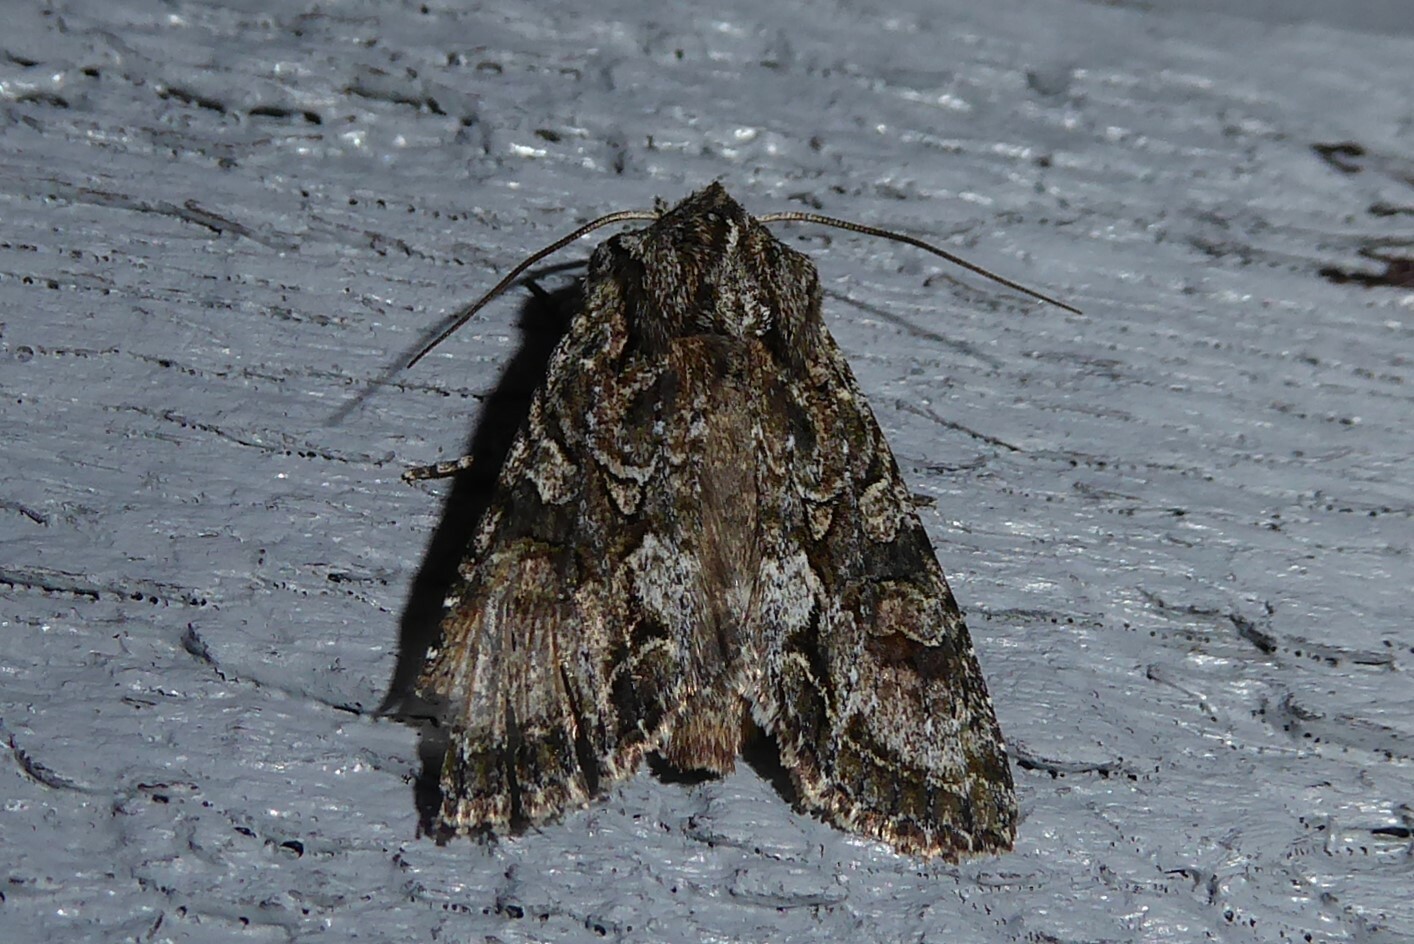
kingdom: Animalia
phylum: Arthropoda
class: Insecta
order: Lepidoptera
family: Noctuidae
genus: Ichneutica
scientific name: Ichneutica mutans
